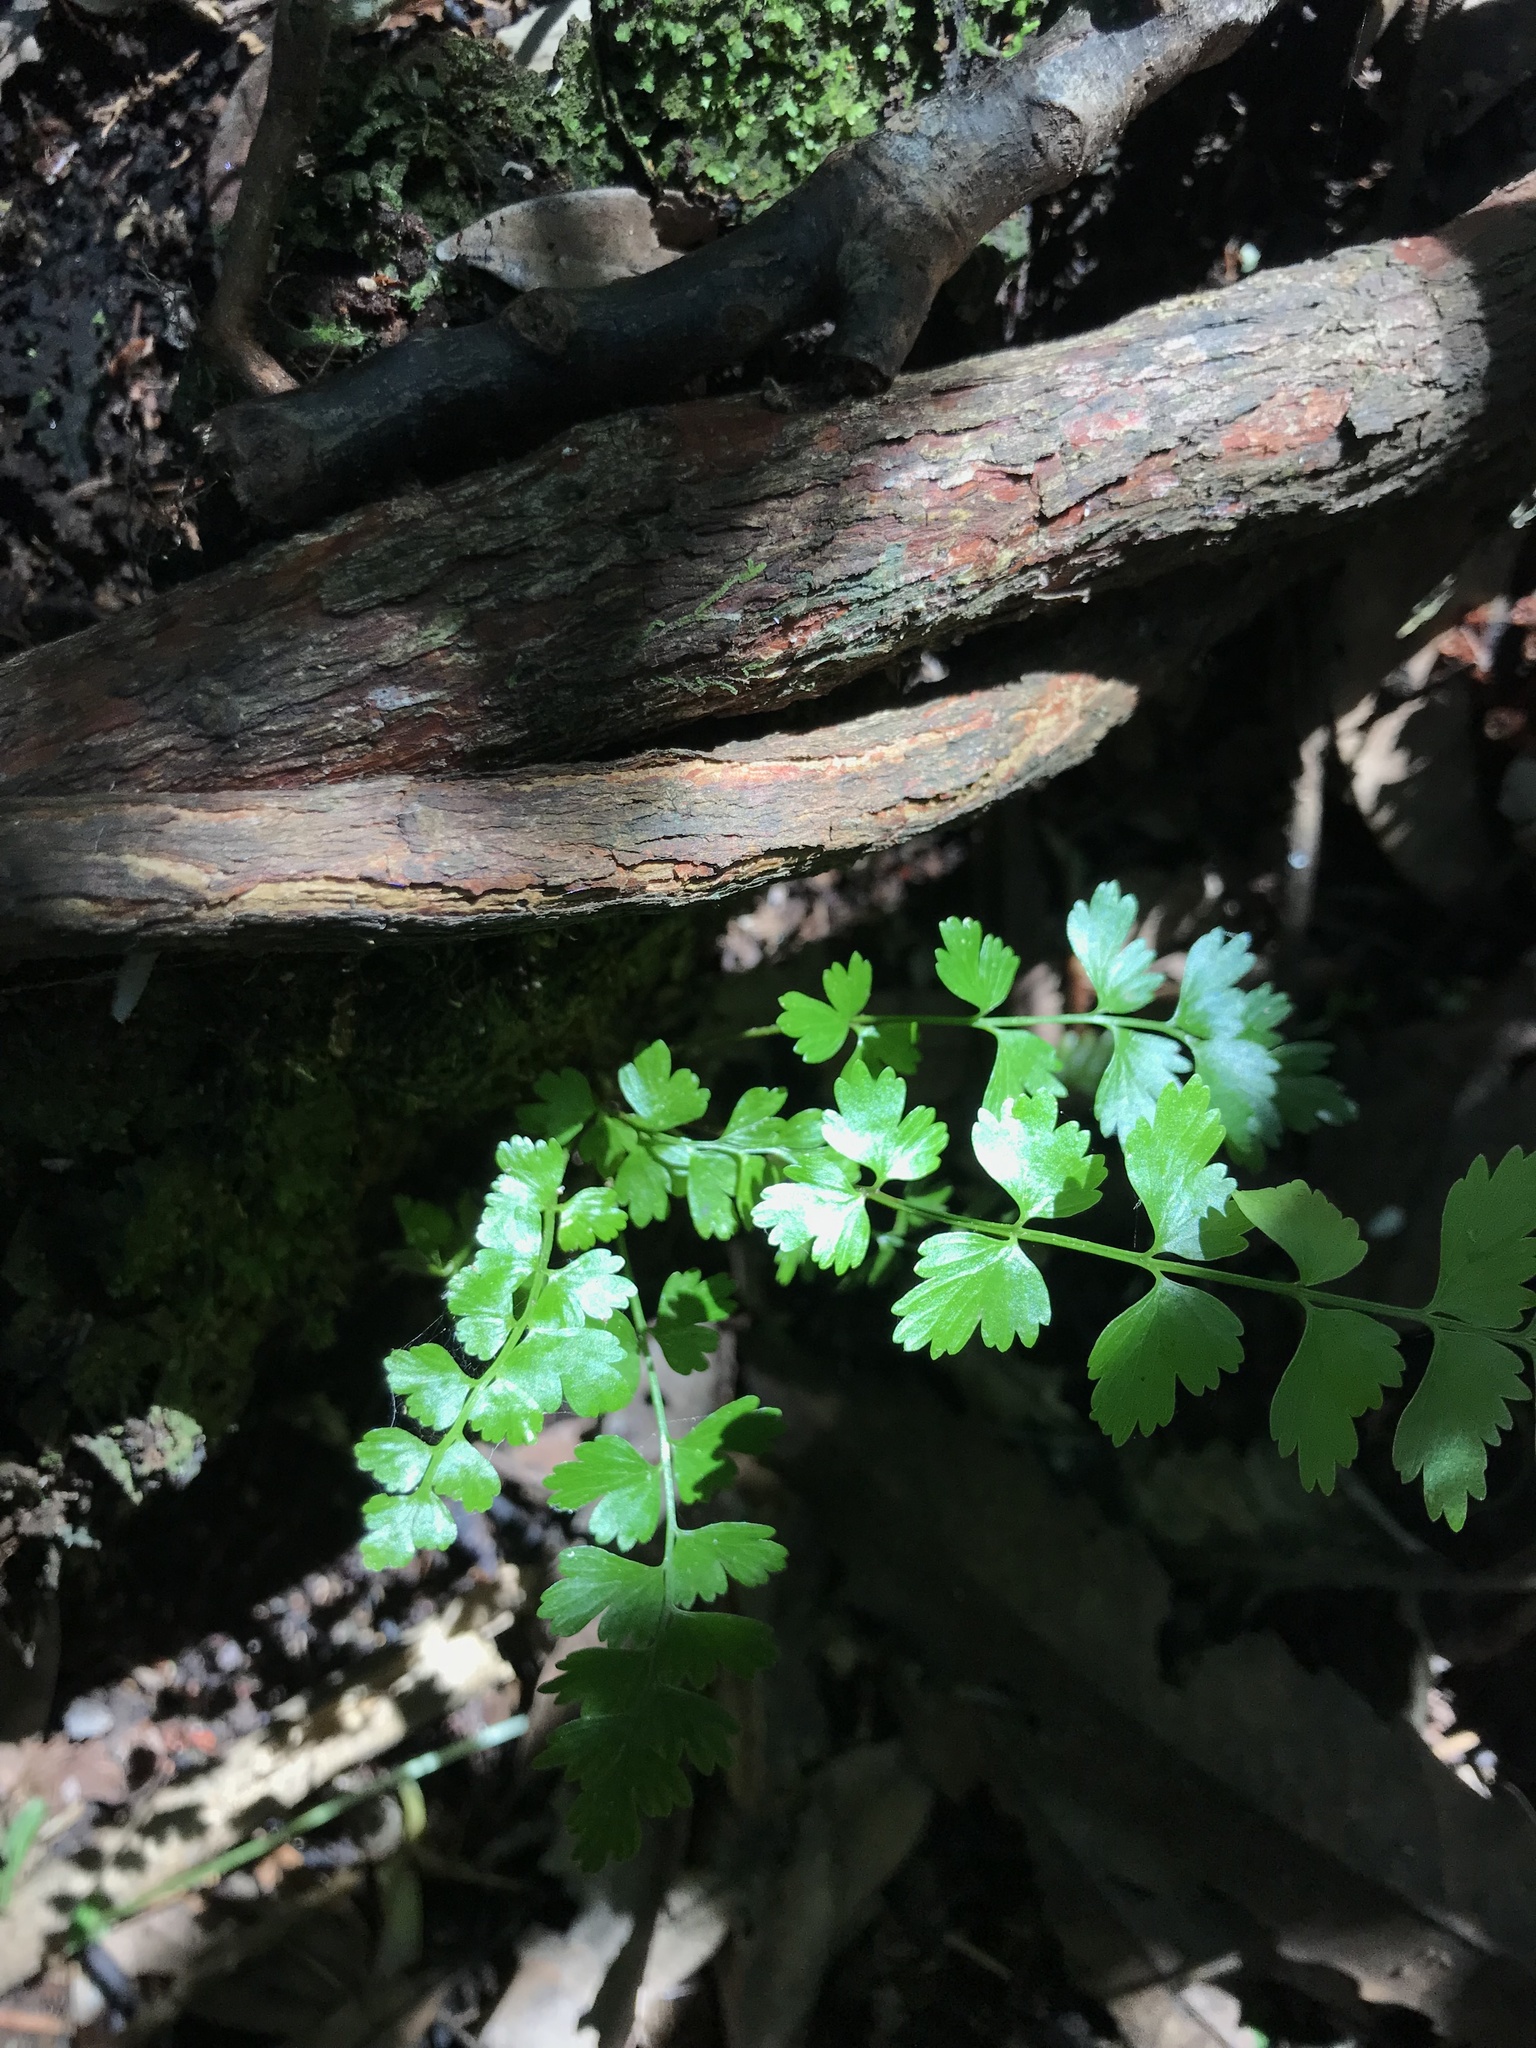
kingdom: Plantae
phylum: Tracheophyta
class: Polypodiopsida
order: Polypodiales
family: Aspleniaceae
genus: Asplenium
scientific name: Asplenium polyodon
